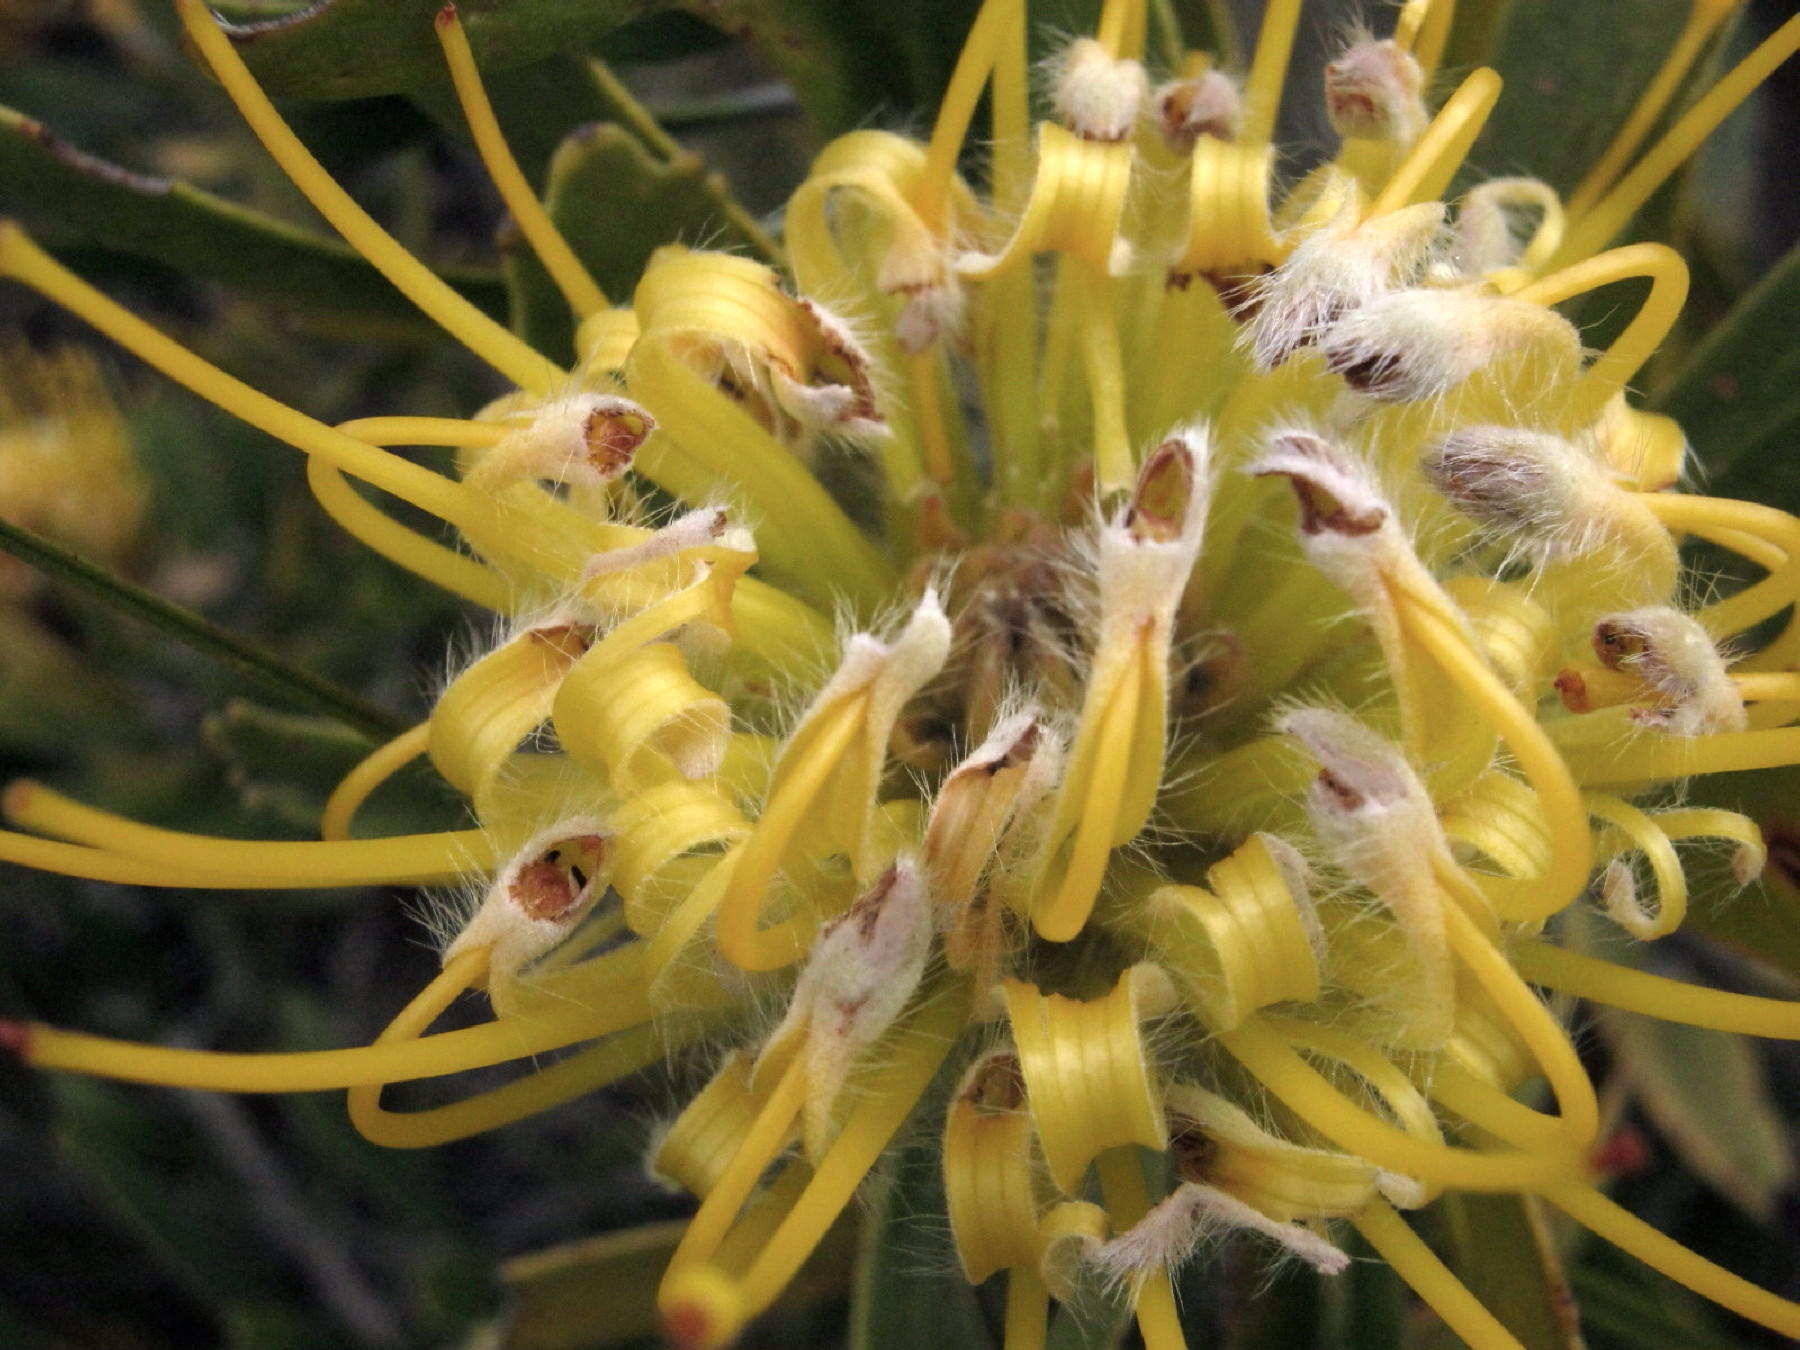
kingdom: Plantae
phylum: Tracheophyta
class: Magnoliopsida
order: Proteales
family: Proteaceae
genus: Leucospermum
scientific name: Leucospermum cuneiforme
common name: Common pincushion
